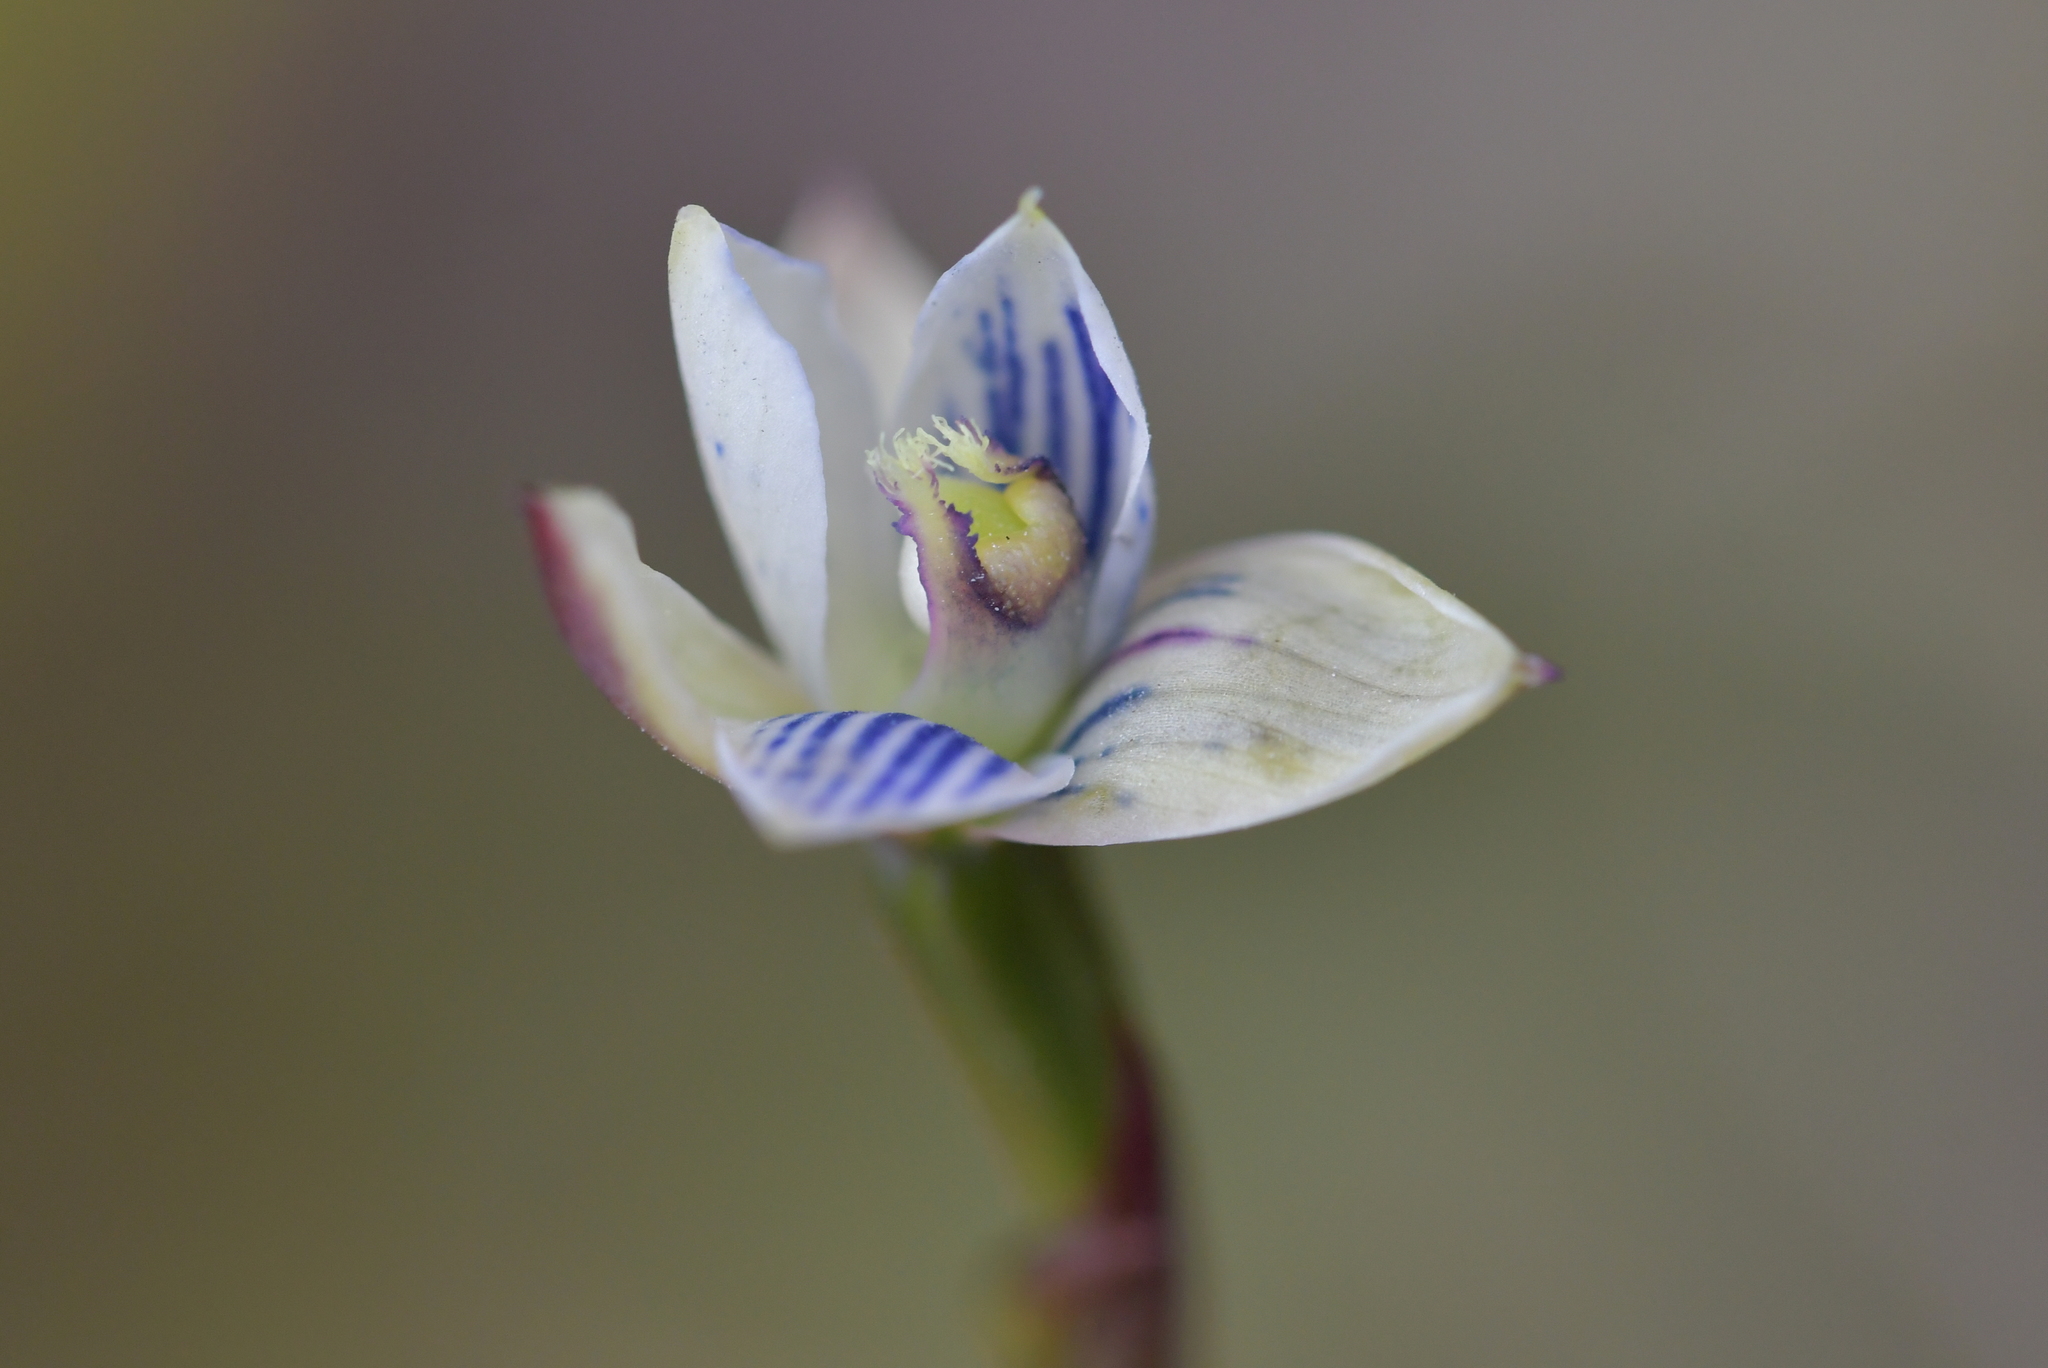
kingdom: Plantae
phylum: Tracheophyta
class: Liliopsida
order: Asparagales
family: Orchidaceae
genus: Thelymitra
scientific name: Thelymitra pulchella
